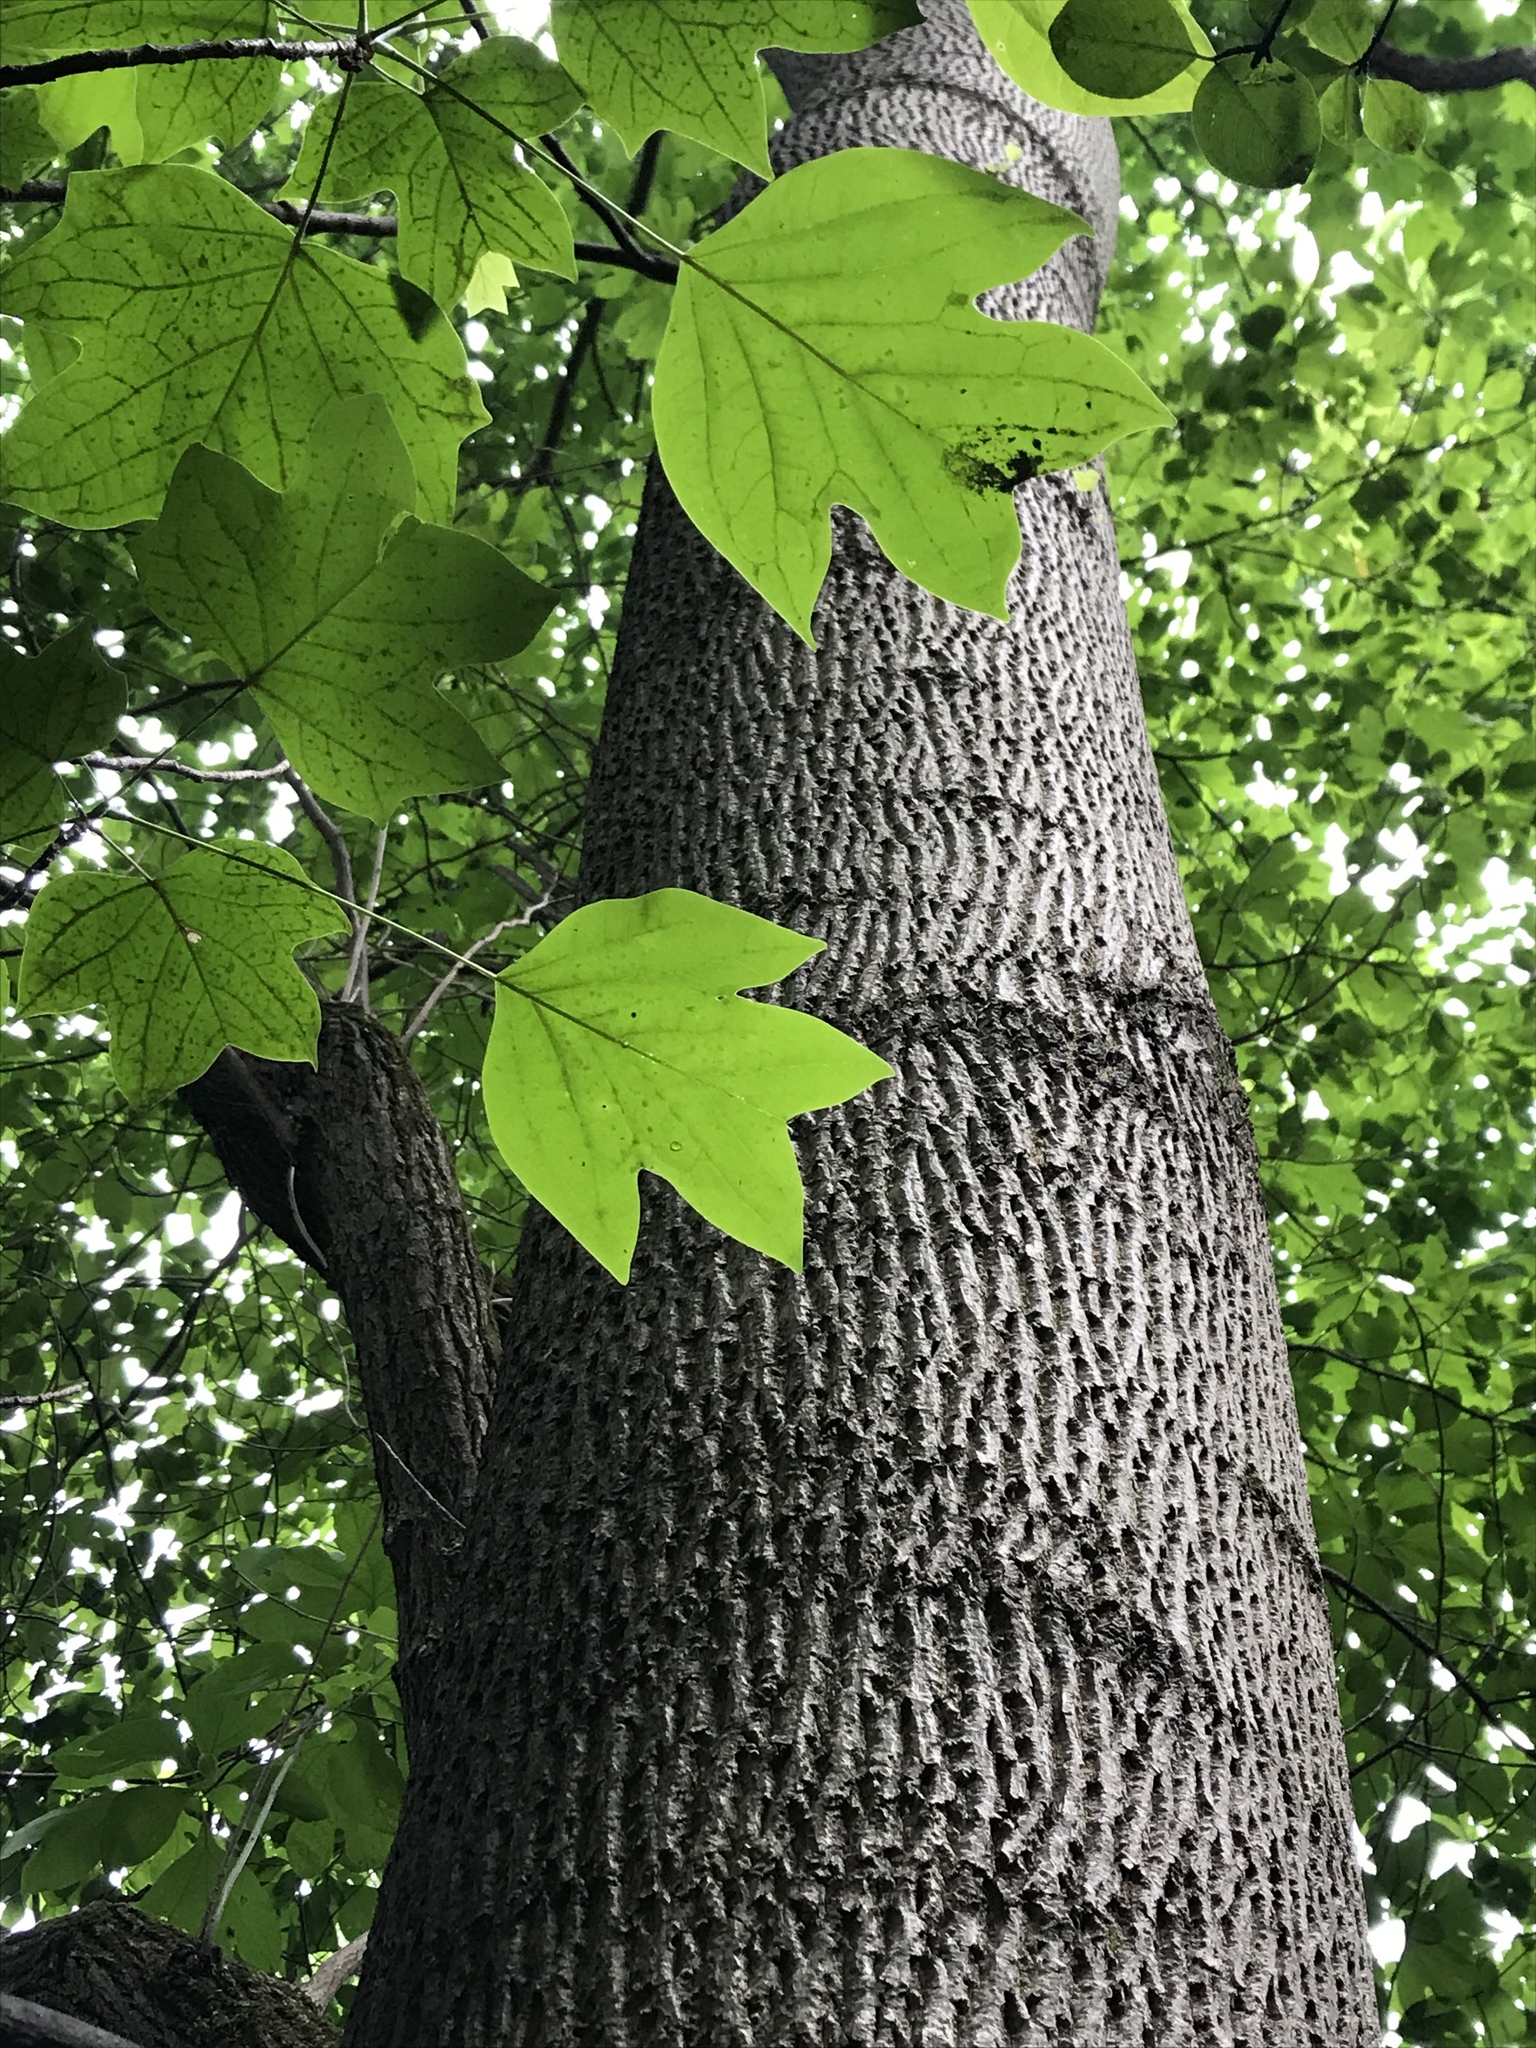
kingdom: Plantae
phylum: Tracheophyta
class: Magnoliopsida
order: Magnoliales
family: Magnoliaceae
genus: Liriodendron
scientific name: Liriodendron tulipifera
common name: Tulip tree
